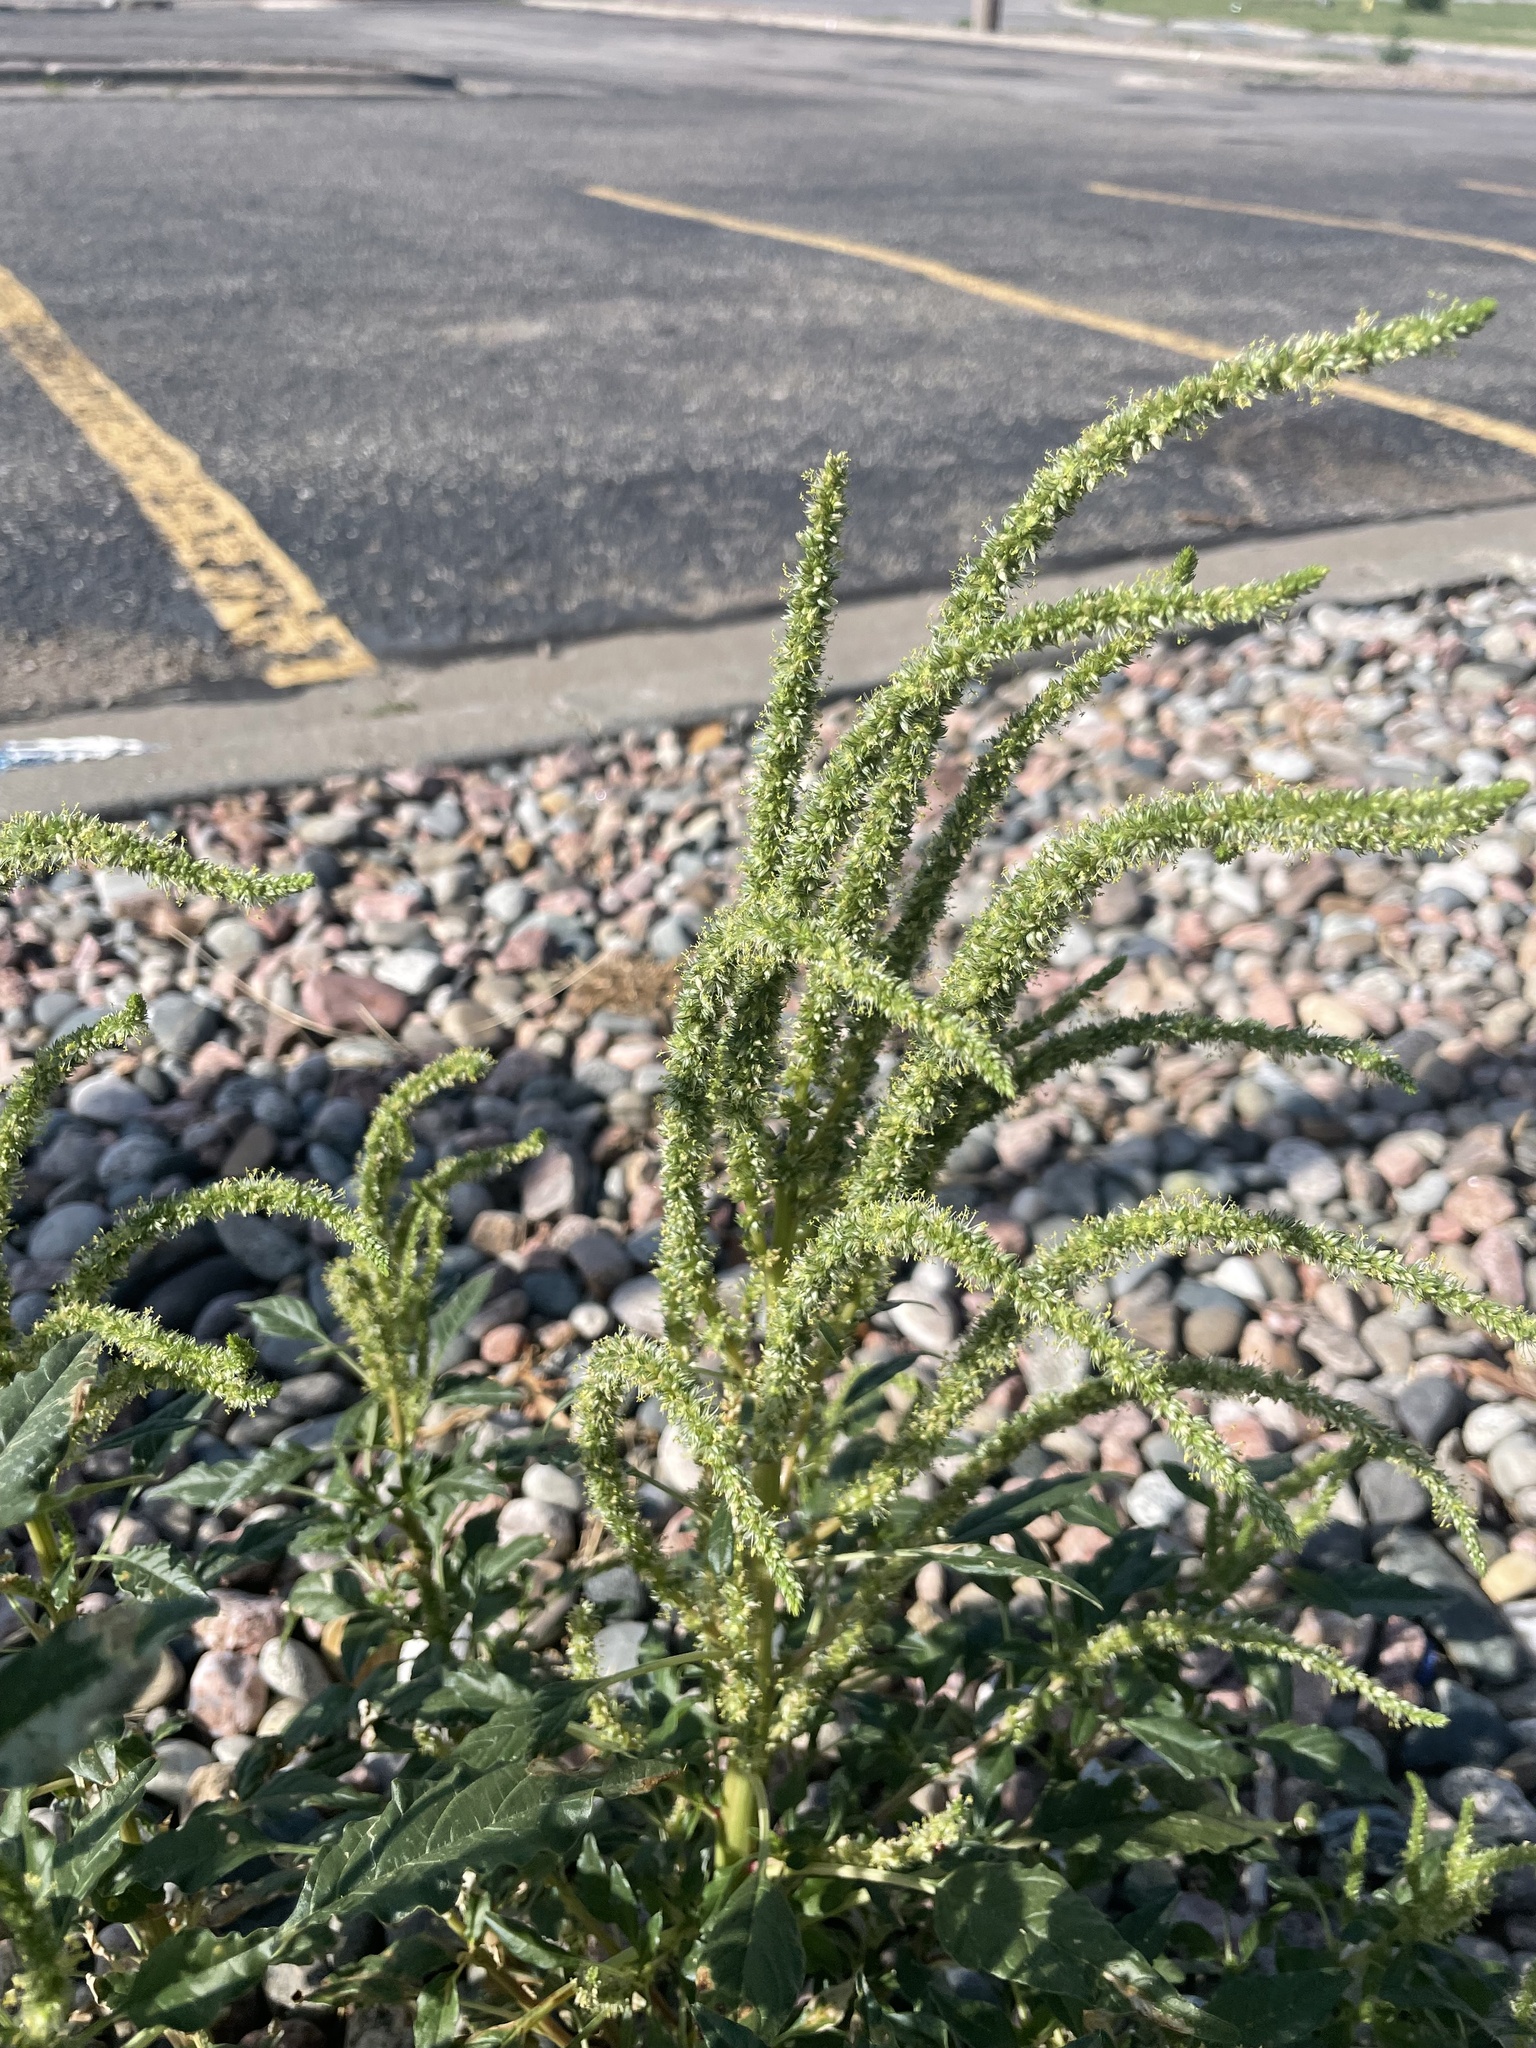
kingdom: Plantae
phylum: Tracheophyta
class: Magnoliopsida
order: Caryophyllales
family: Amaranthaceae
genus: Amaranthus
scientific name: Amaranthus palmeri
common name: Dioecious amaranth
